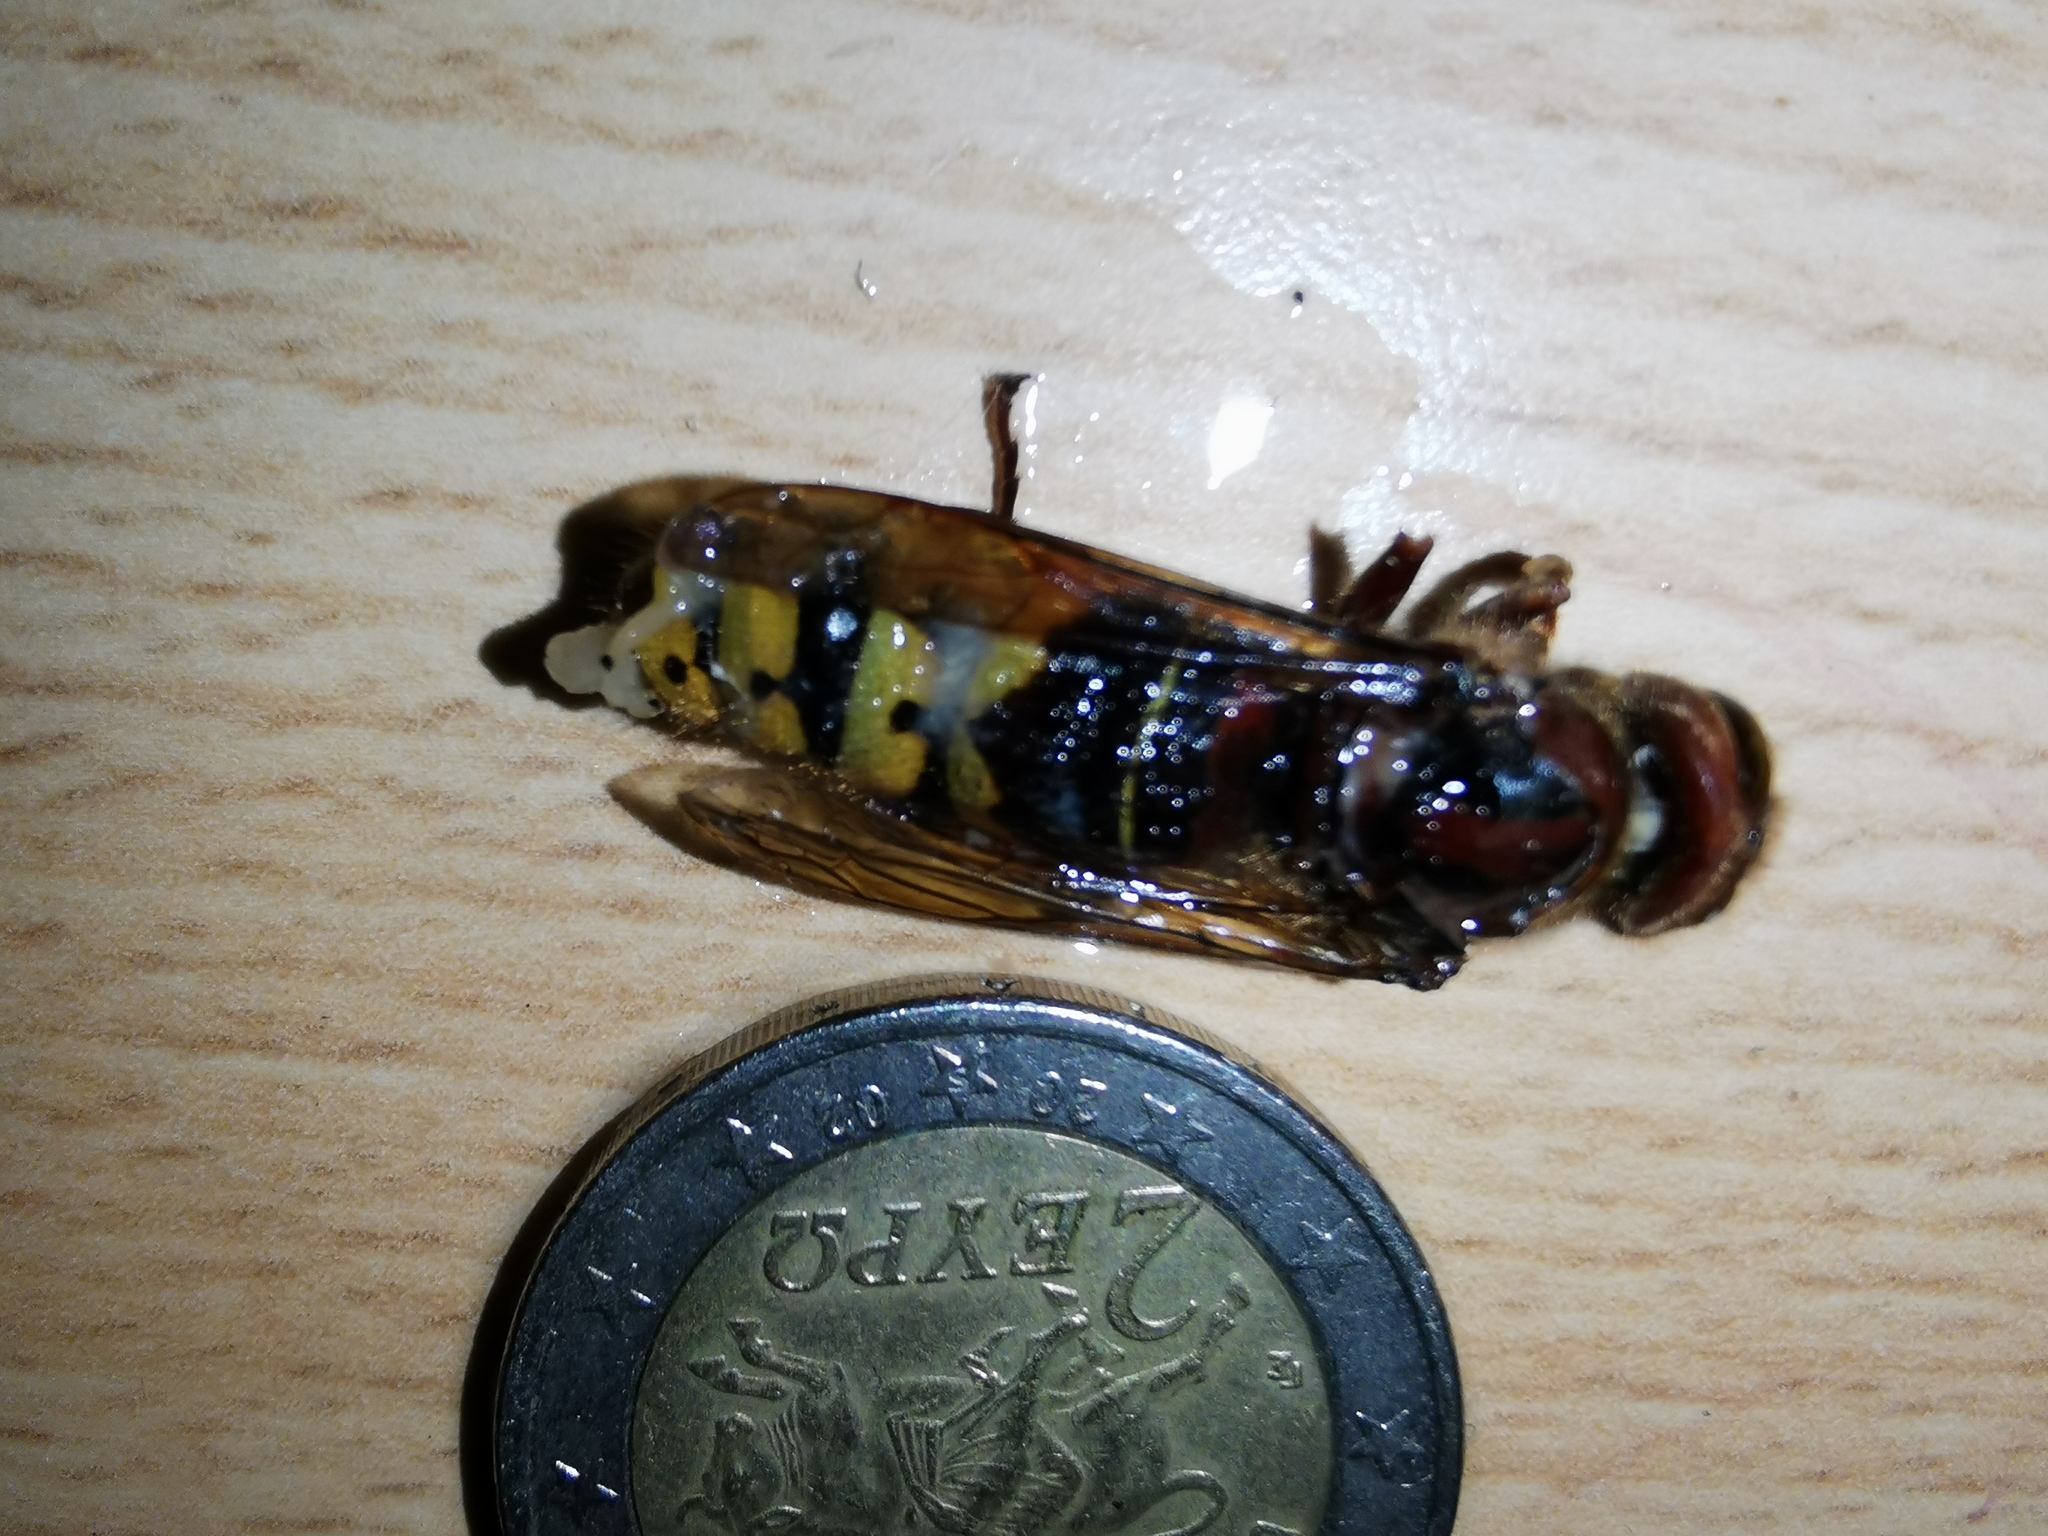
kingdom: Animalia
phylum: Arthropoda
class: Insecta
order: Hymenoptera
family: Vespidae
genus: Vespa
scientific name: Vespa crabro
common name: Hornet
